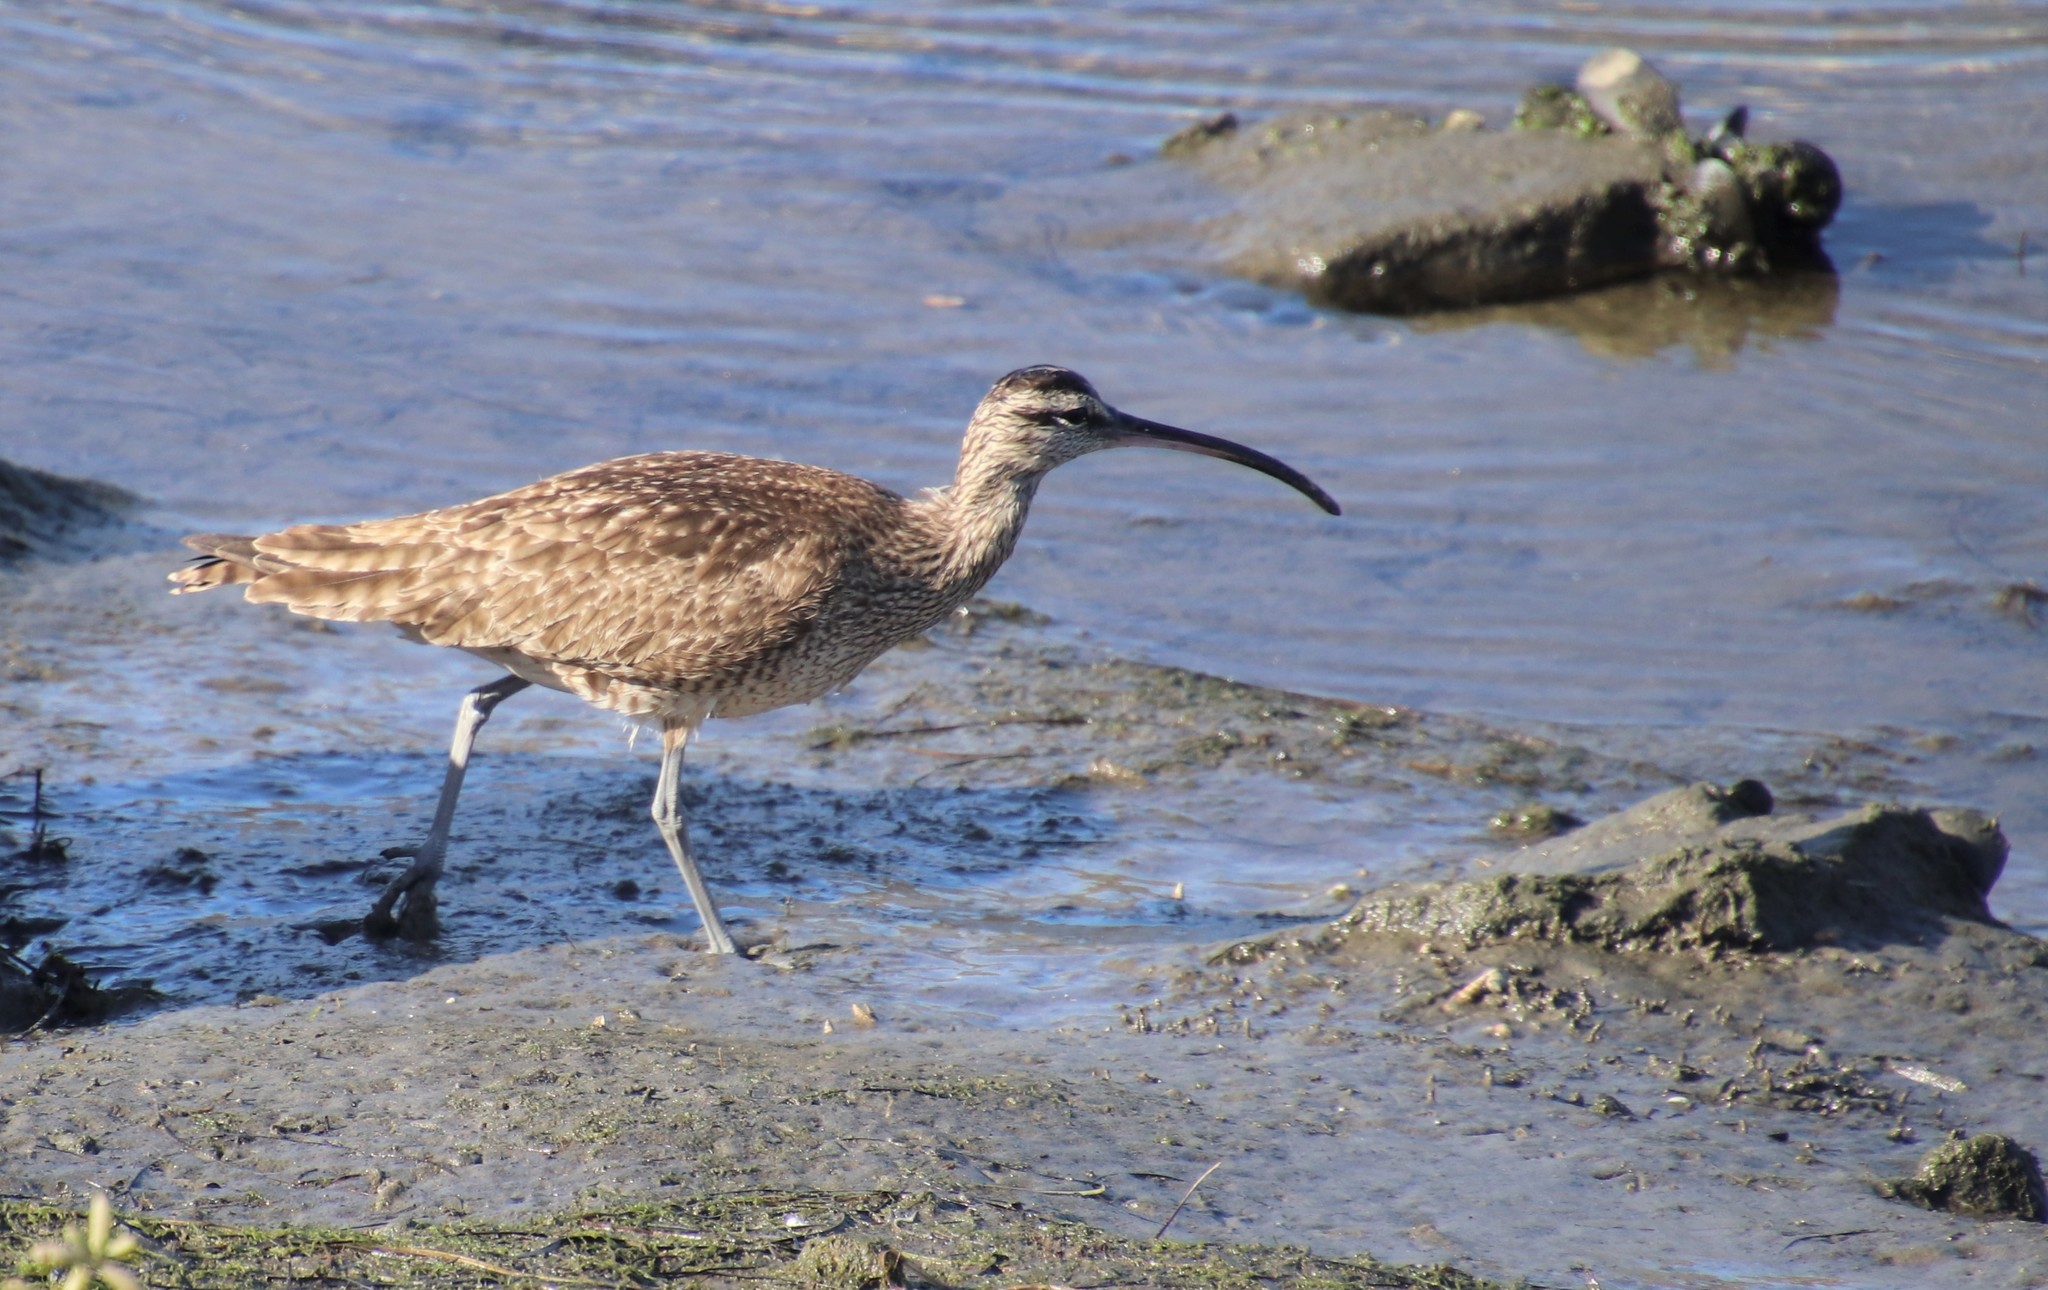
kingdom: Animalia
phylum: Chordata
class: Aves
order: Charadriiformes
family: Scolopacidae
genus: Numenius
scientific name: Numenius phaeopus
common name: Whimbrel
